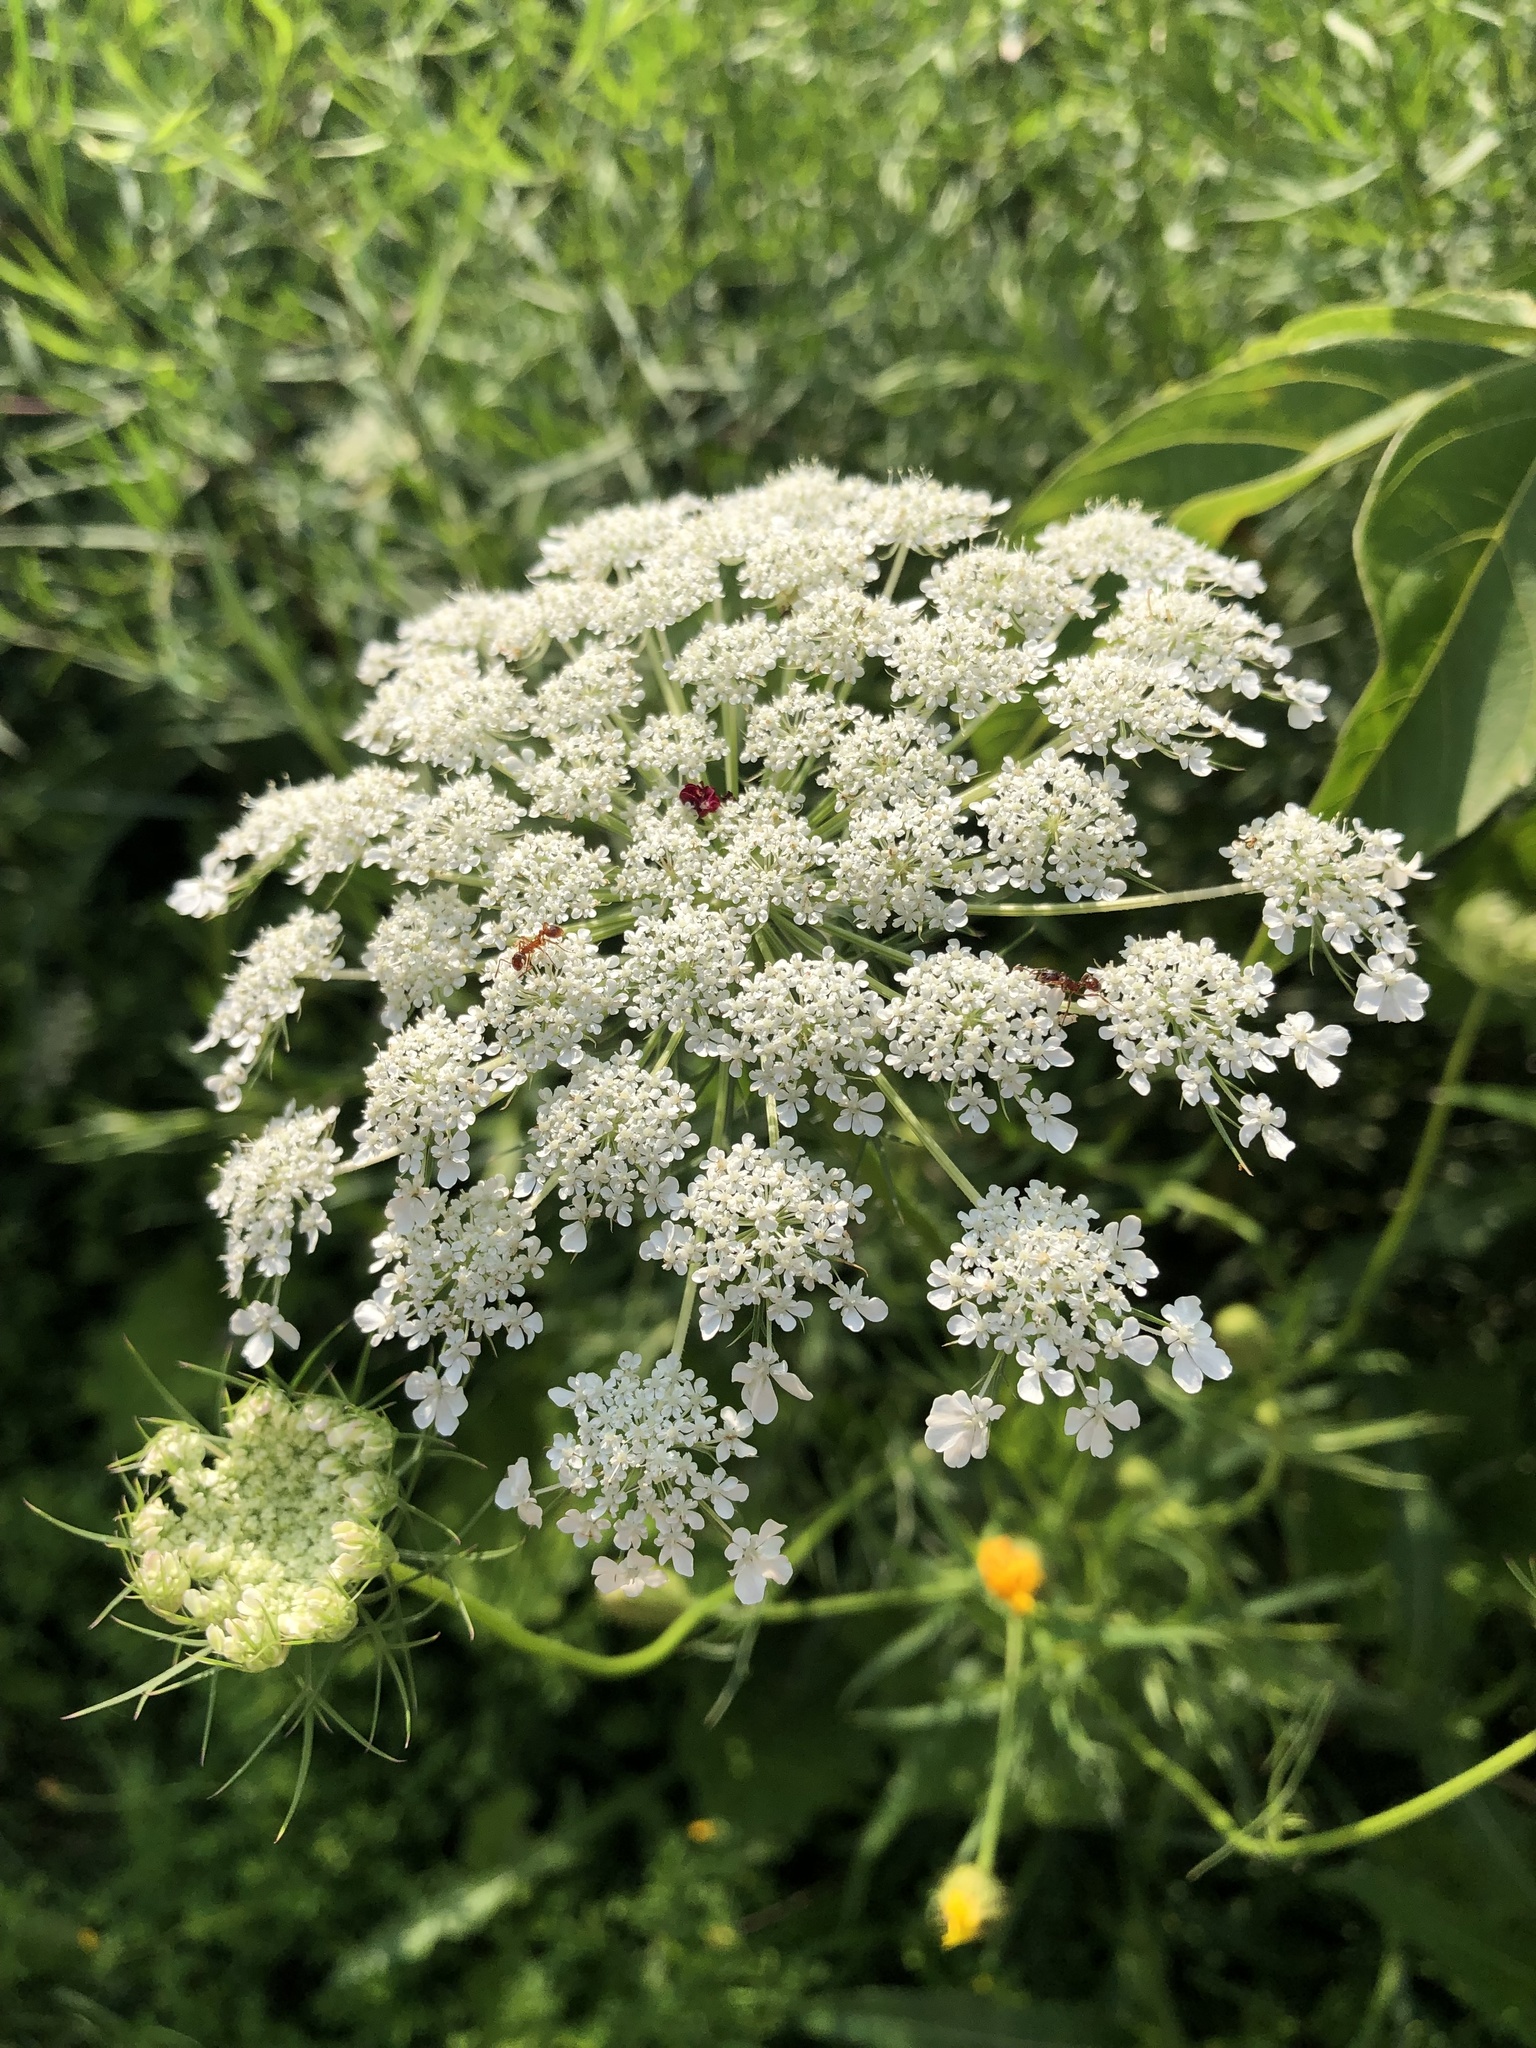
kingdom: Plantae
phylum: Tracheophyta
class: Magnoliopsida
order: Apiales
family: Apiaceae
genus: Daucus
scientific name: Daucus carota
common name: Wild carrot
